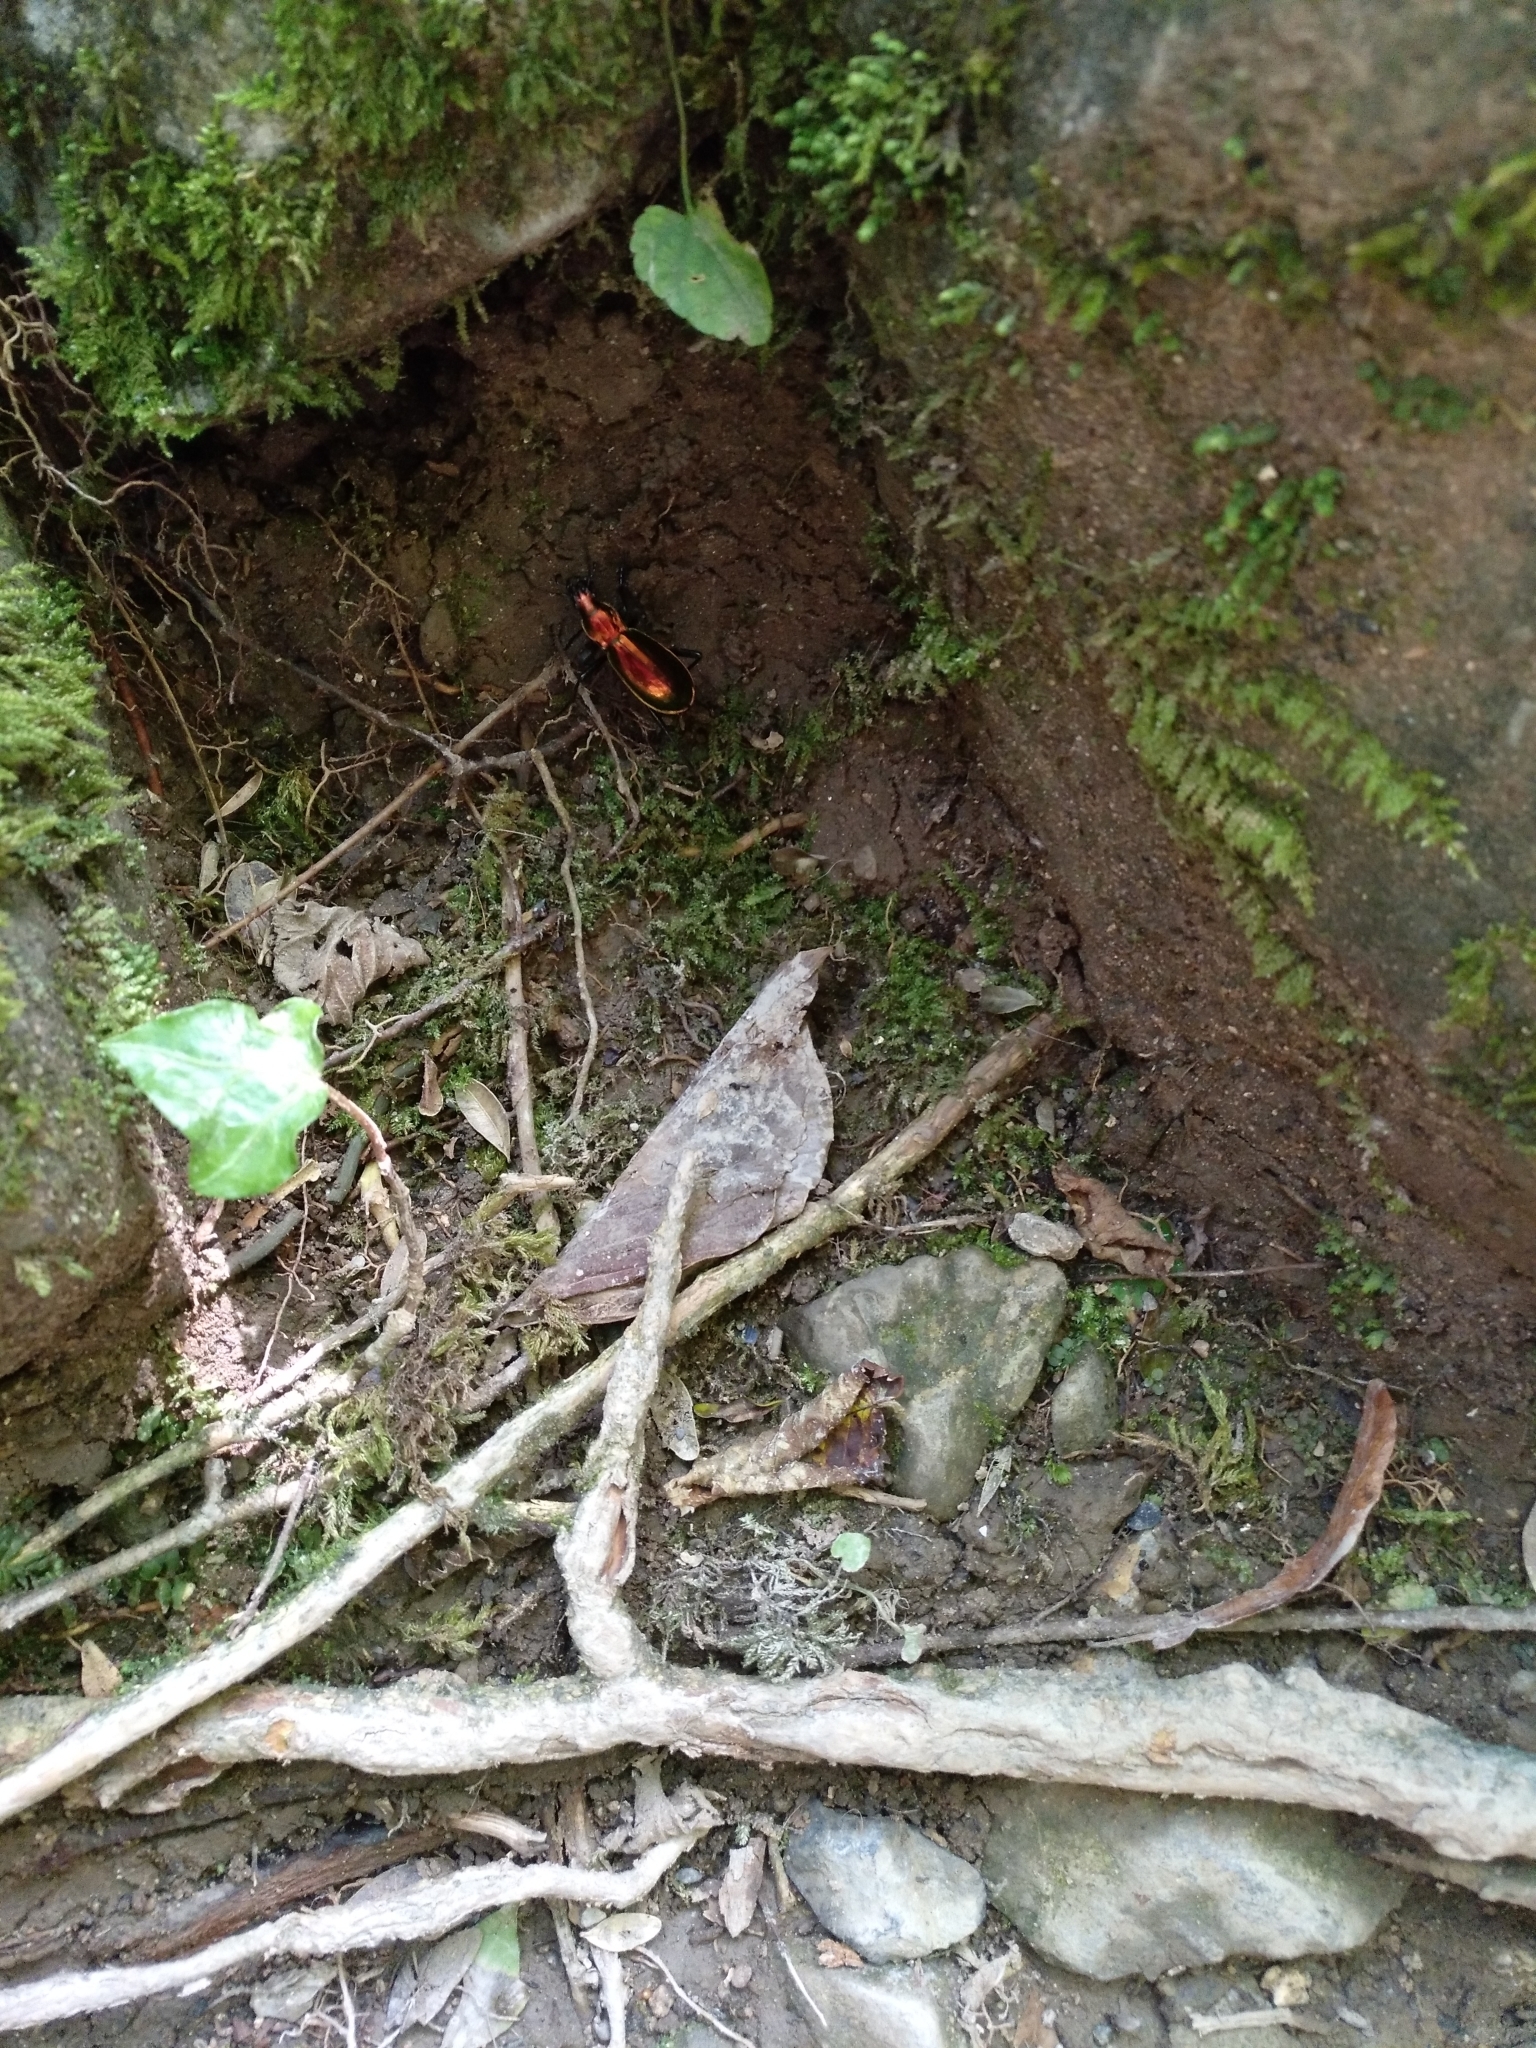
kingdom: Animalia
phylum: Arthropoda
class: Insecta
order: Coleoptera
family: Carabidae
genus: Carabus
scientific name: Carabus splendens
